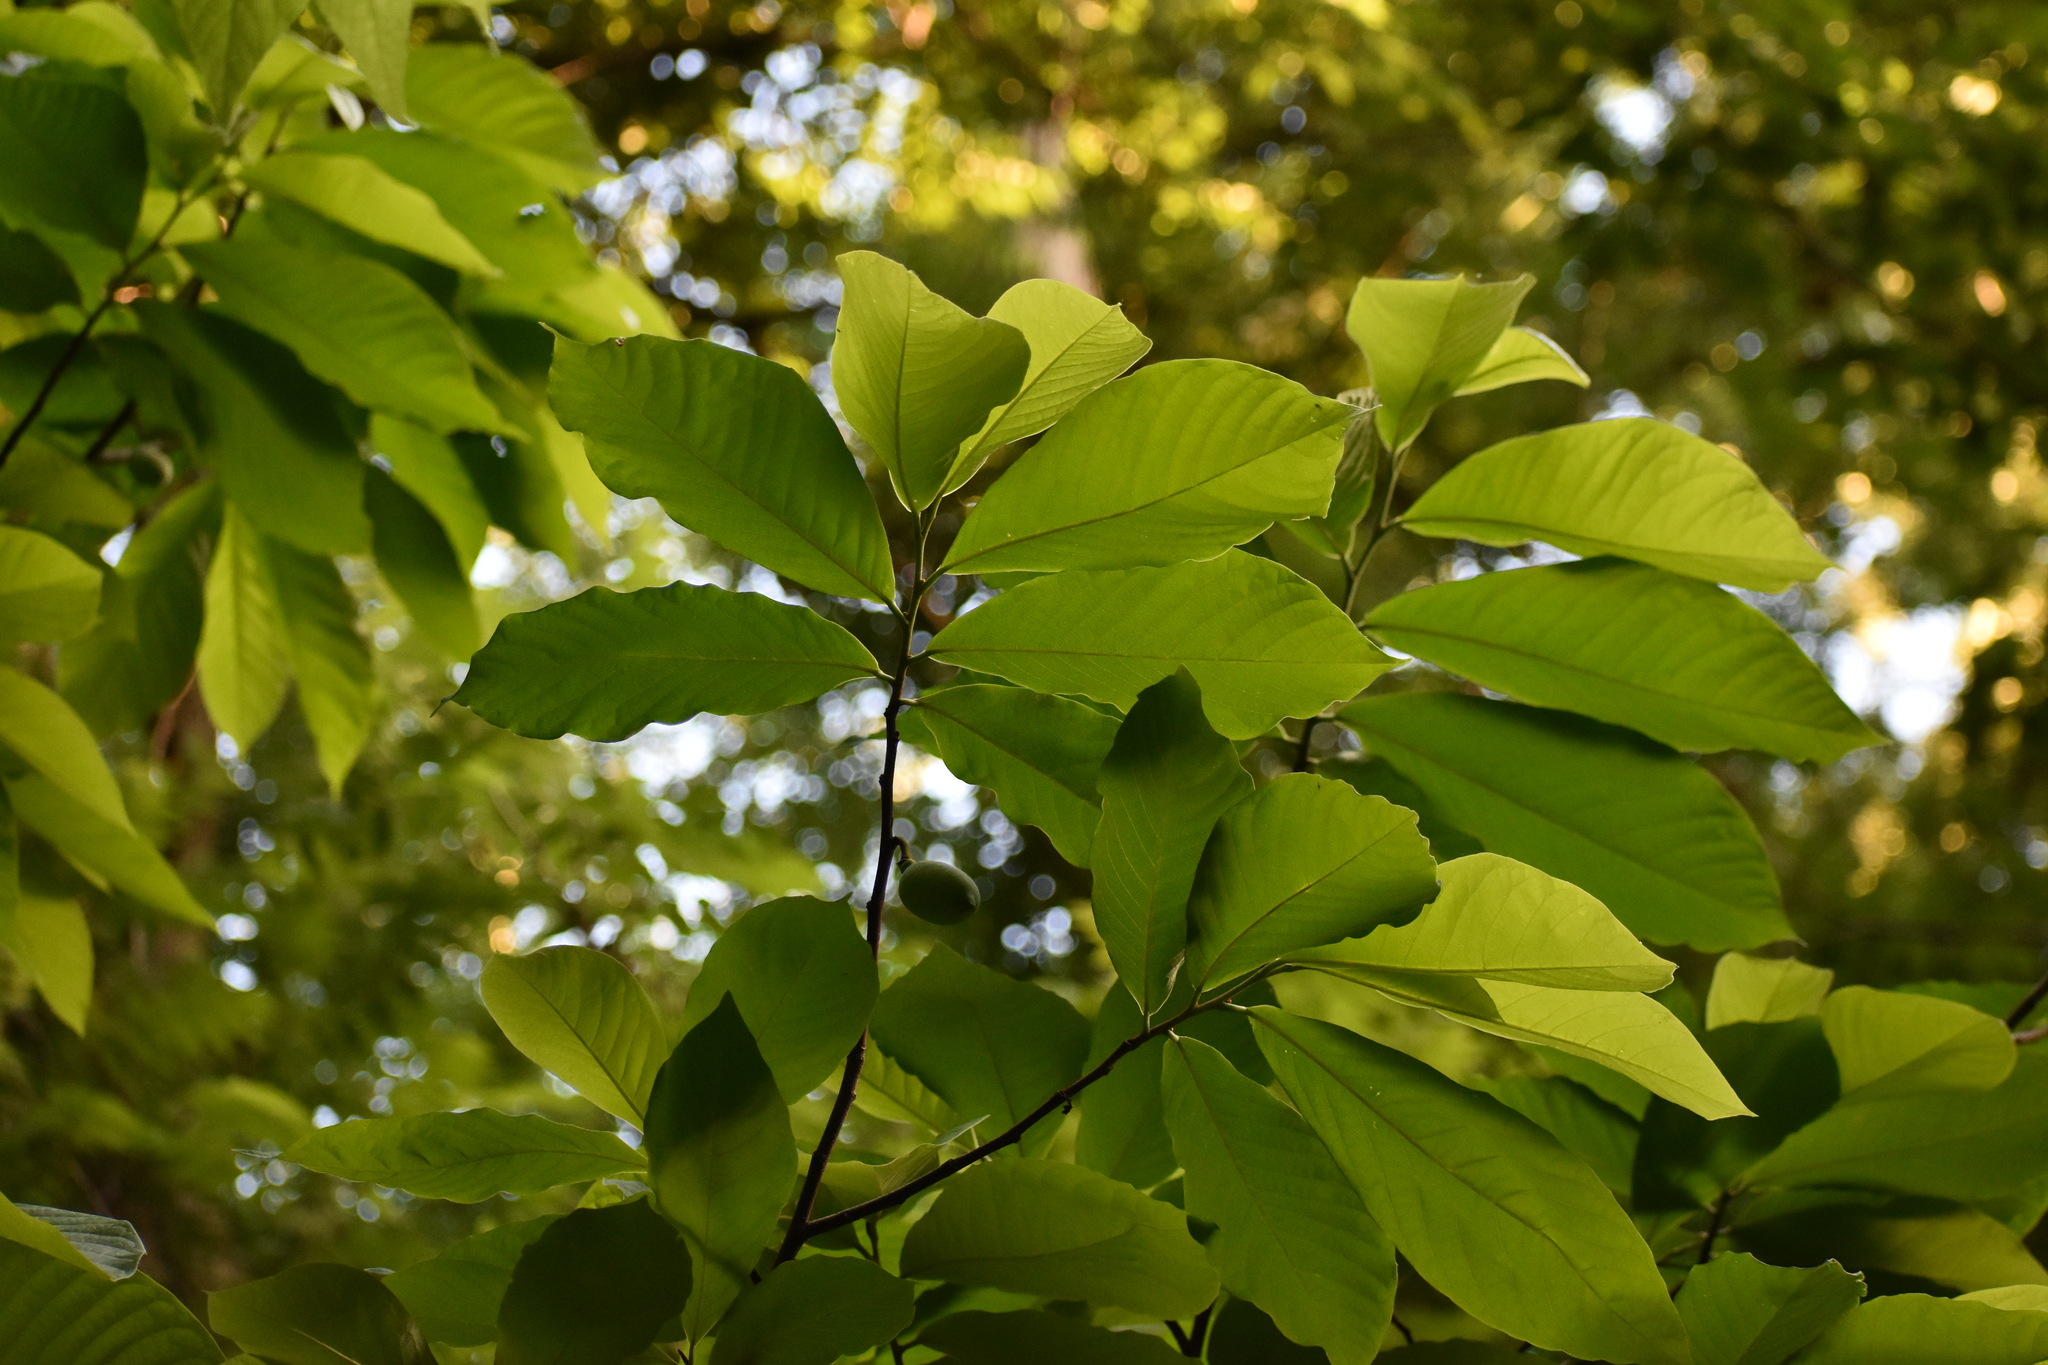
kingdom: Plantae
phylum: Tracheophyta
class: Magnoliopsida
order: Magnoliales
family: Annonaceae
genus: Asimina
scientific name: Asimina triloba
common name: Dog-banana
